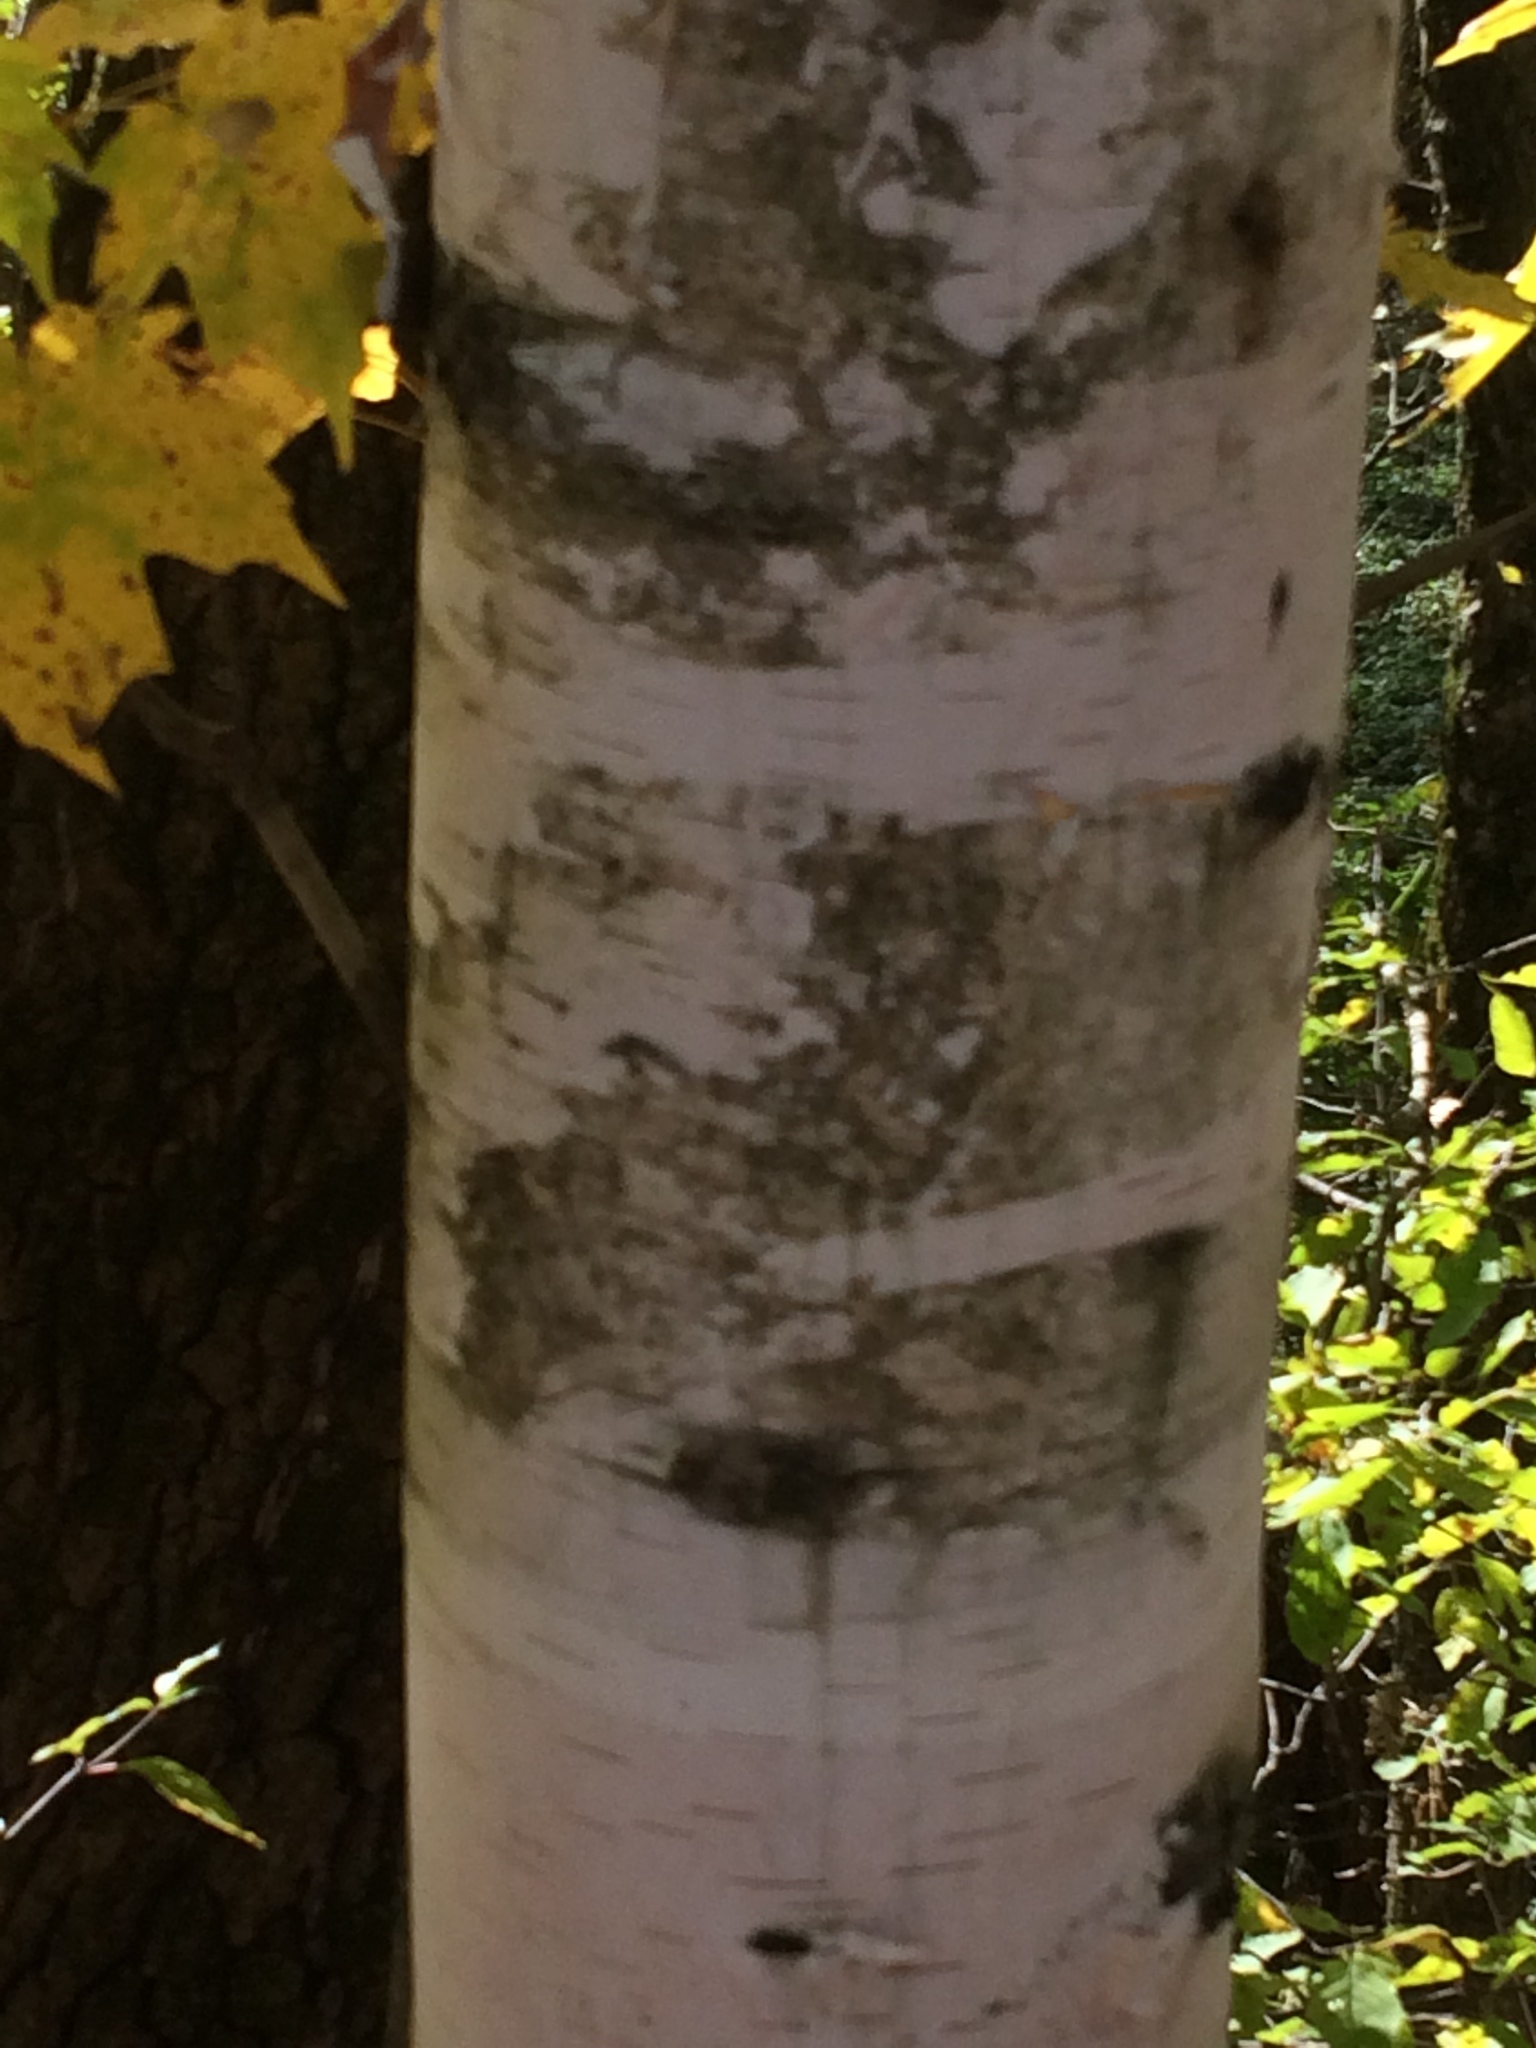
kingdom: Plantae
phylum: Tracheophyta
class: Magnoliopsida
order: Fagales
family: Betulaceae
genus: Betula
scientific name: Betula papyrifera
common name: Paper birch
